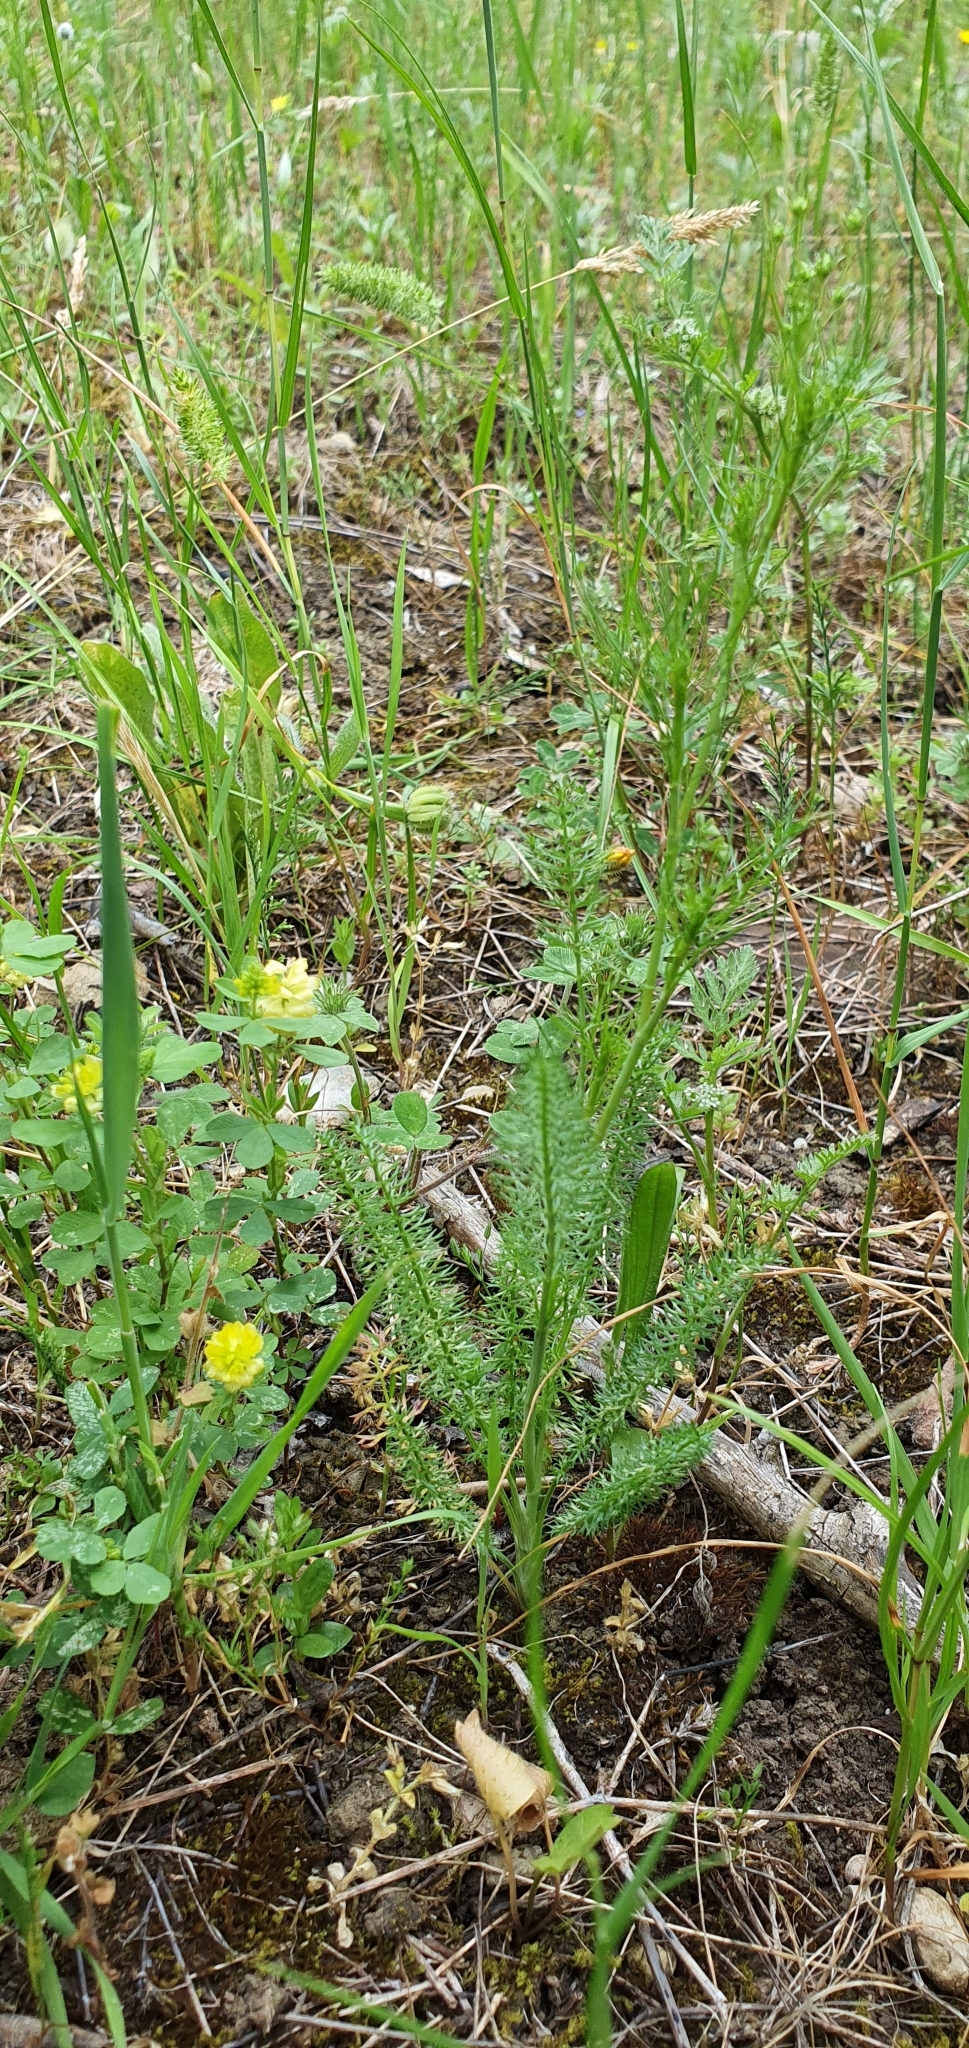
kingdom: Plantae
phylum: Tracheophyta
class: Magnoliopsida
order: Apiales
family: Apiaceae
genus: Ammoides
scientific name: Ammoides pusilla
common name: Cerfolium
